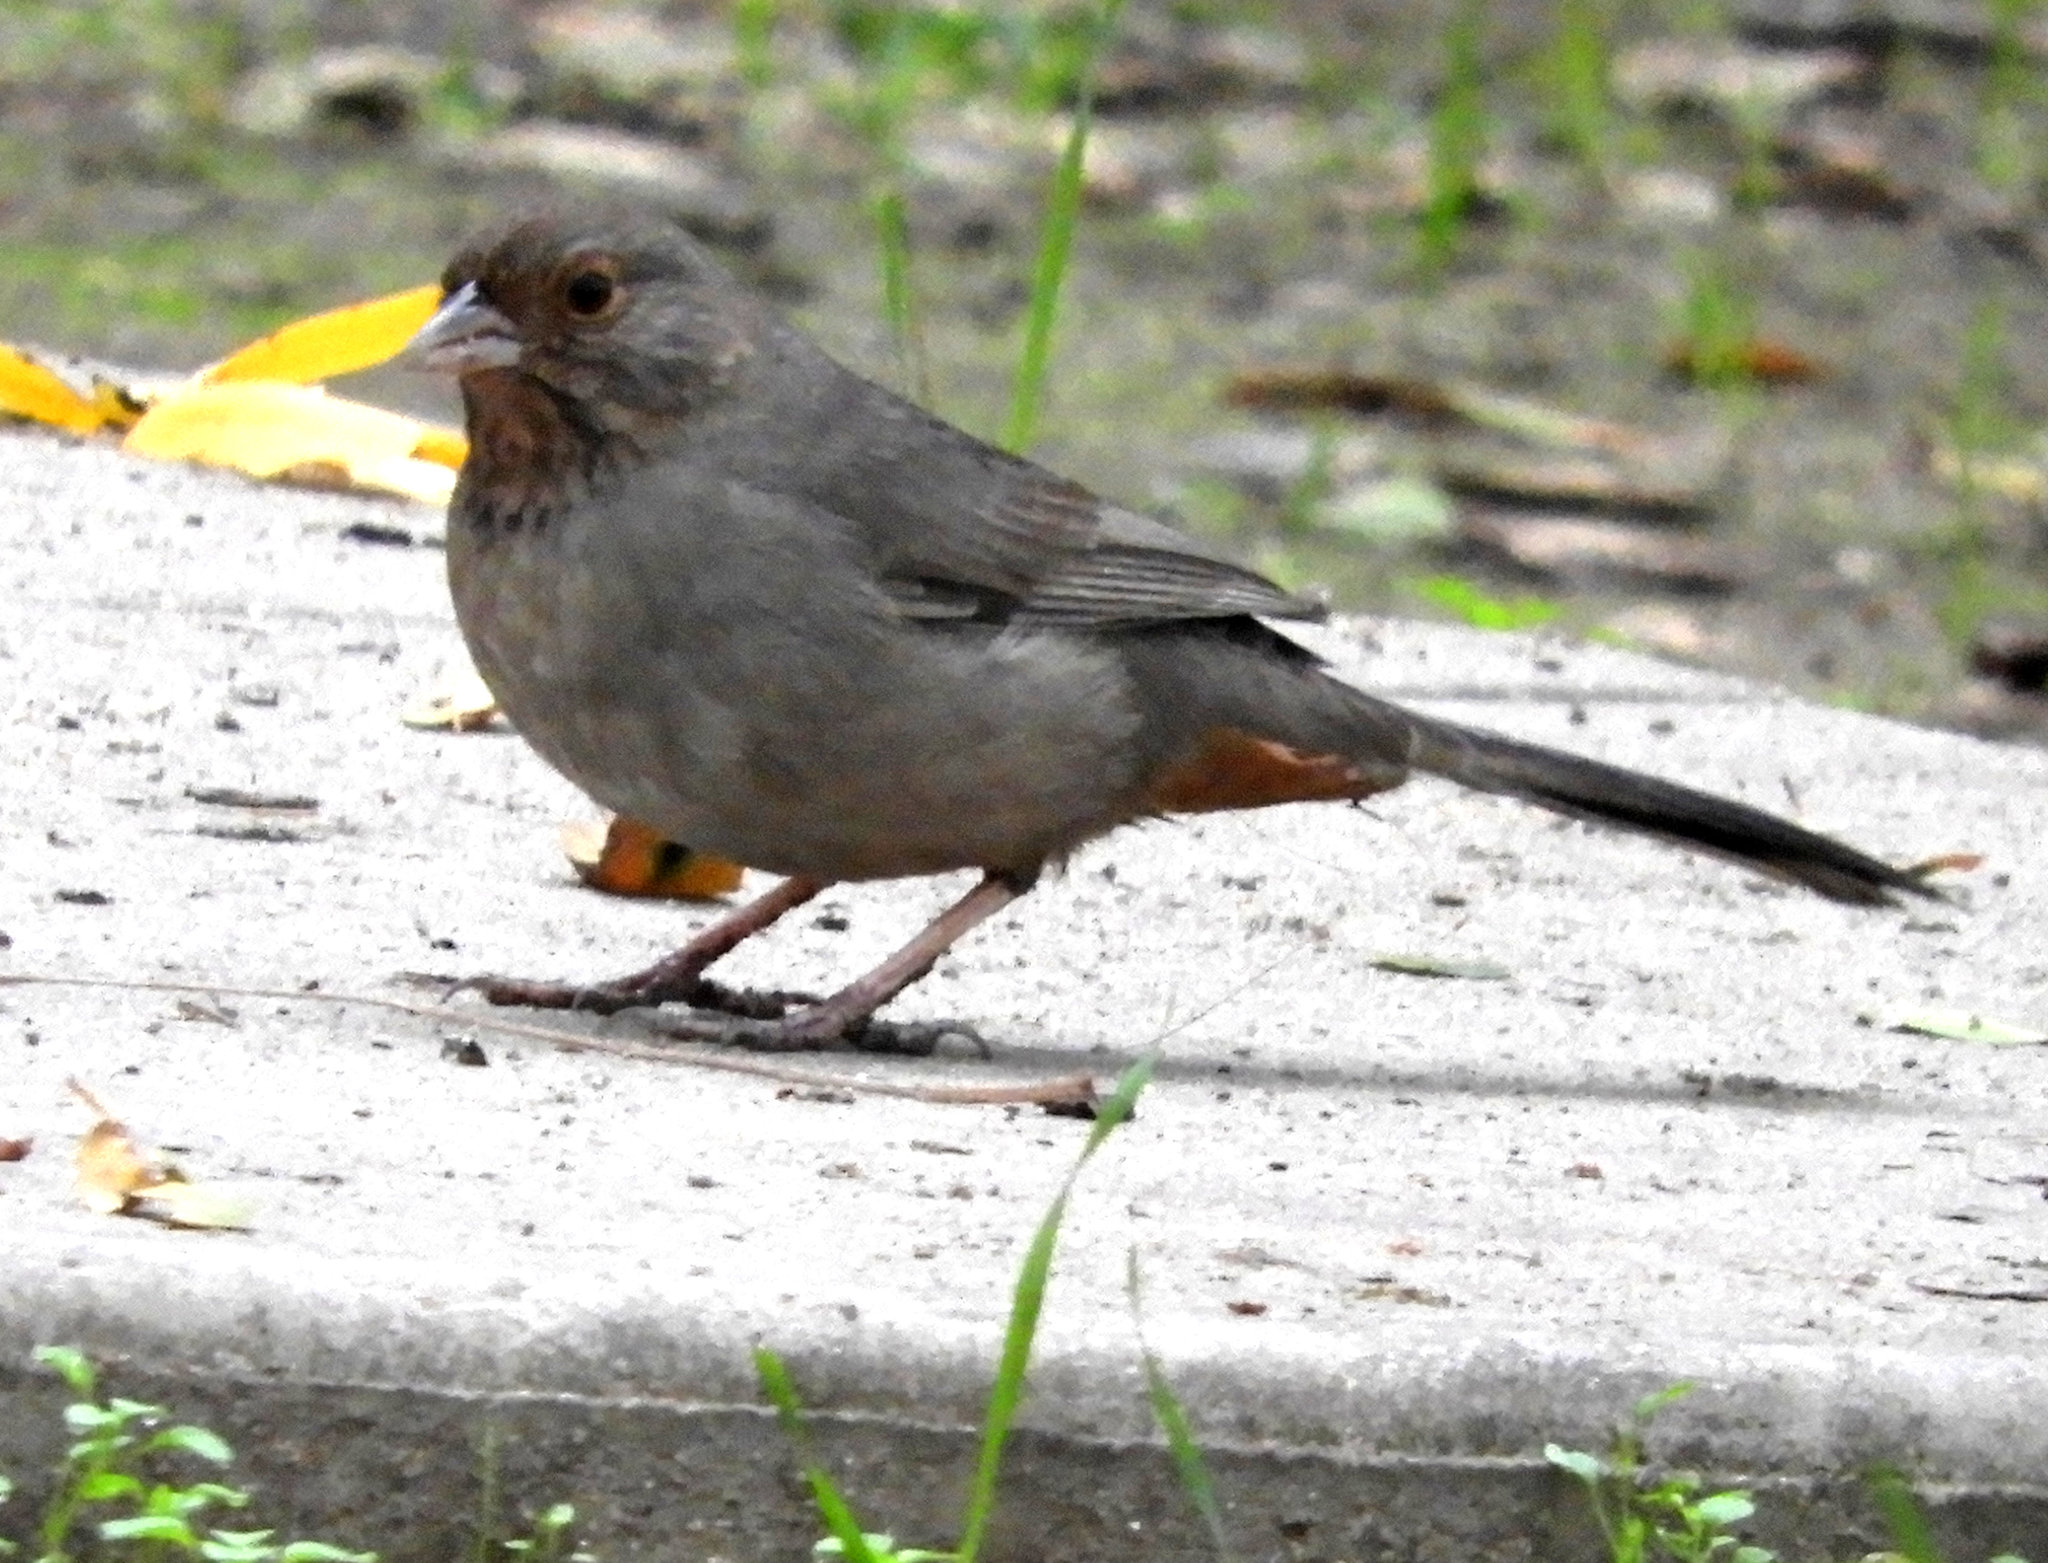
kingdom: Animalia
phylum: Chordata
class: Aves
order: Passeriformes
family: Passerellidae
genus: Melozone
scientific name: Melozone crissalis
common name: California towhee
